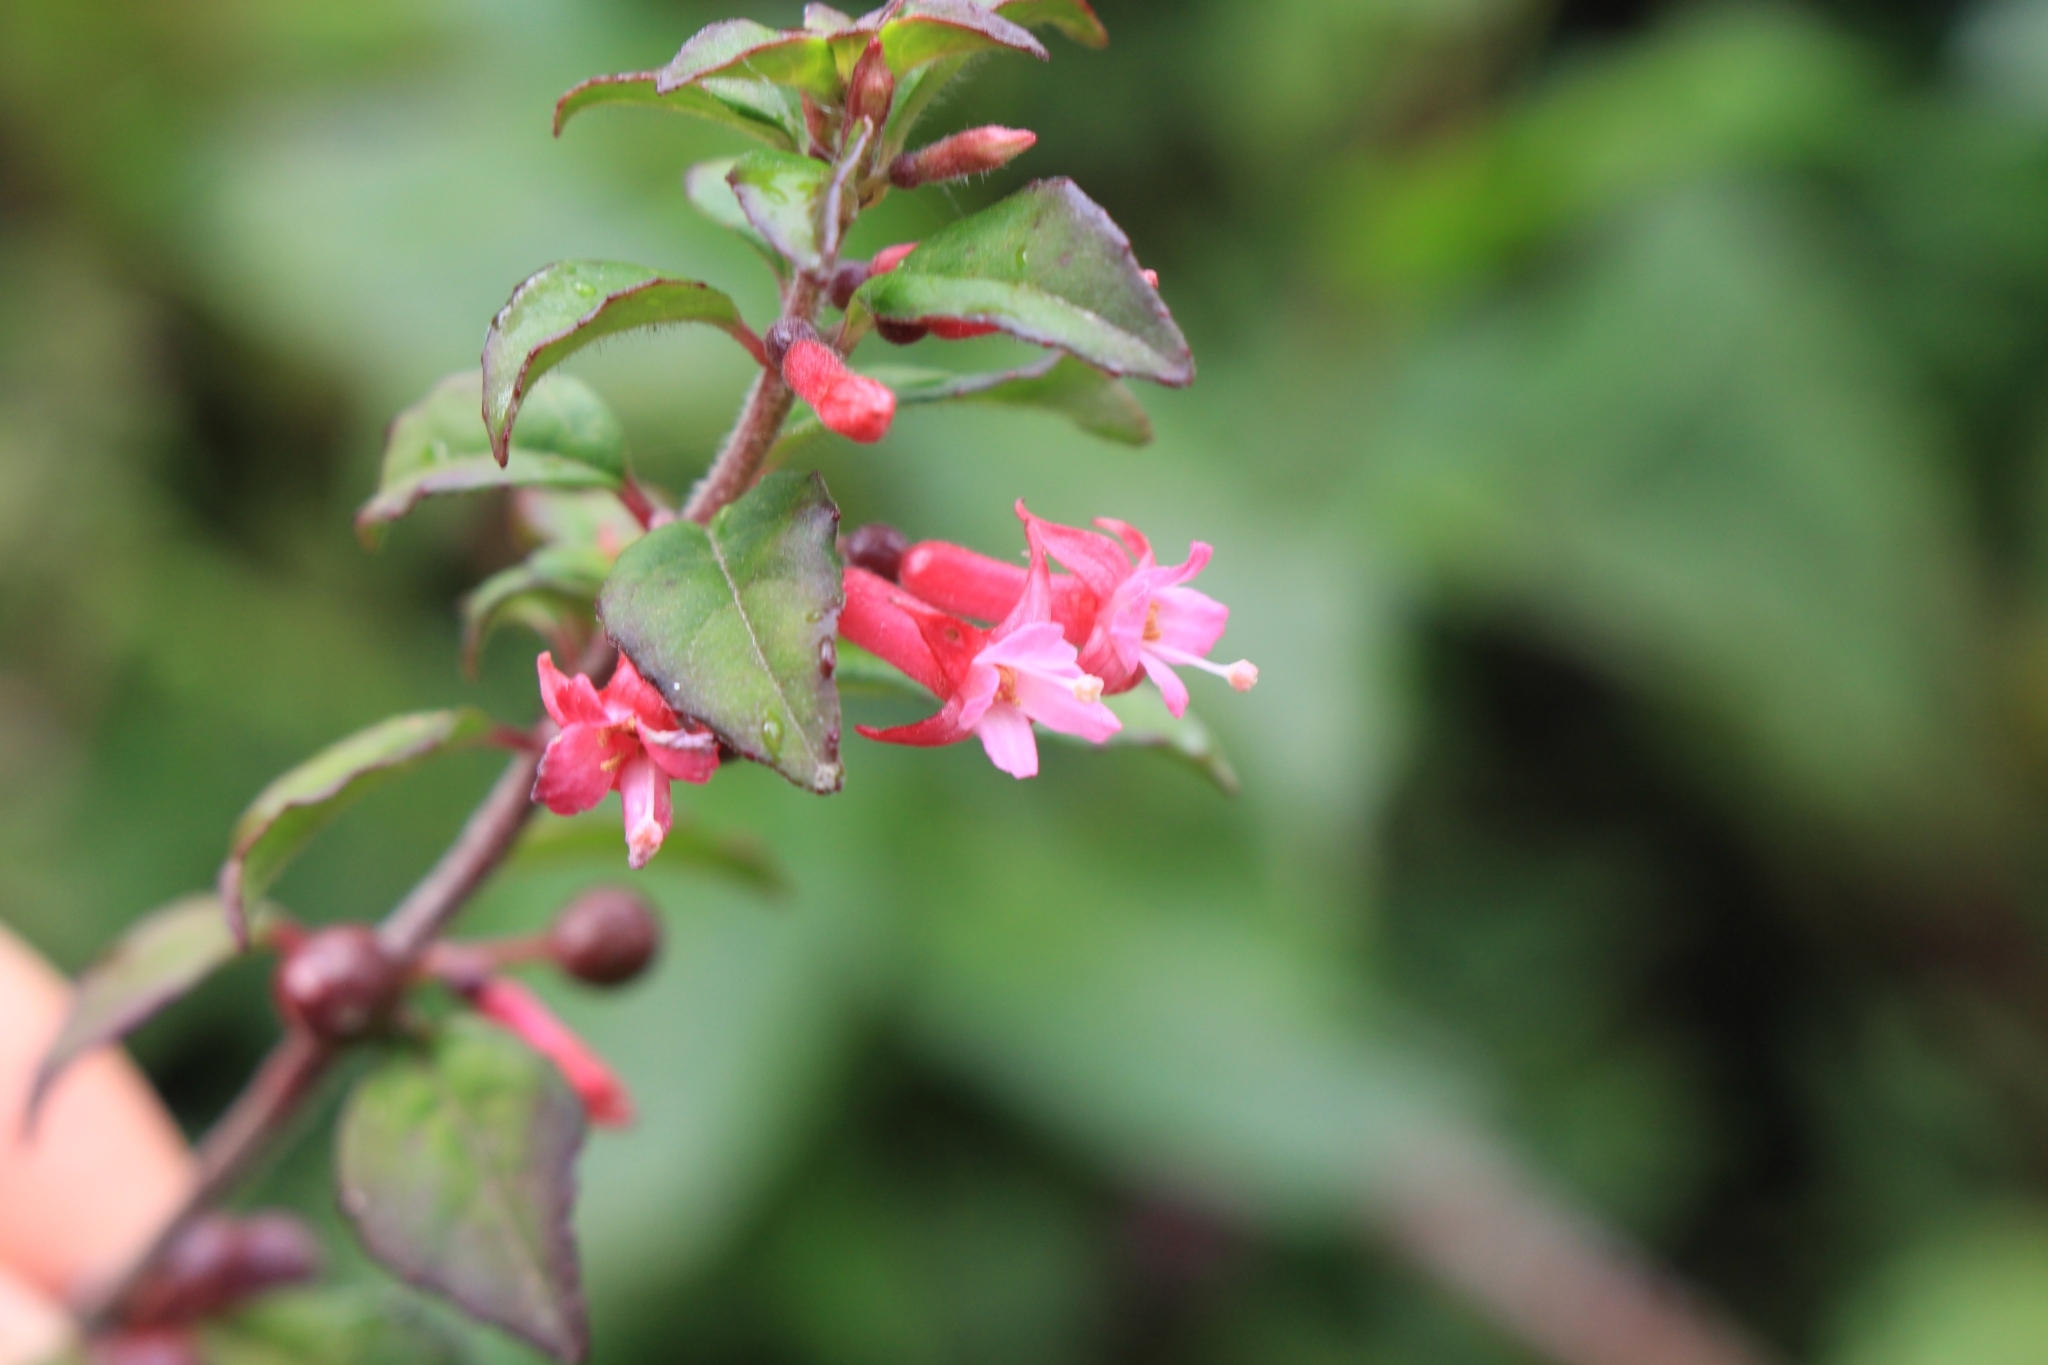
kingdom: Plantae
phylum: Tracheophyta
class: Magnoliopsida
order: Myrtales
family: Onagraceae
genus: Fuchsia
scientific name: Fuchsia microphylla
